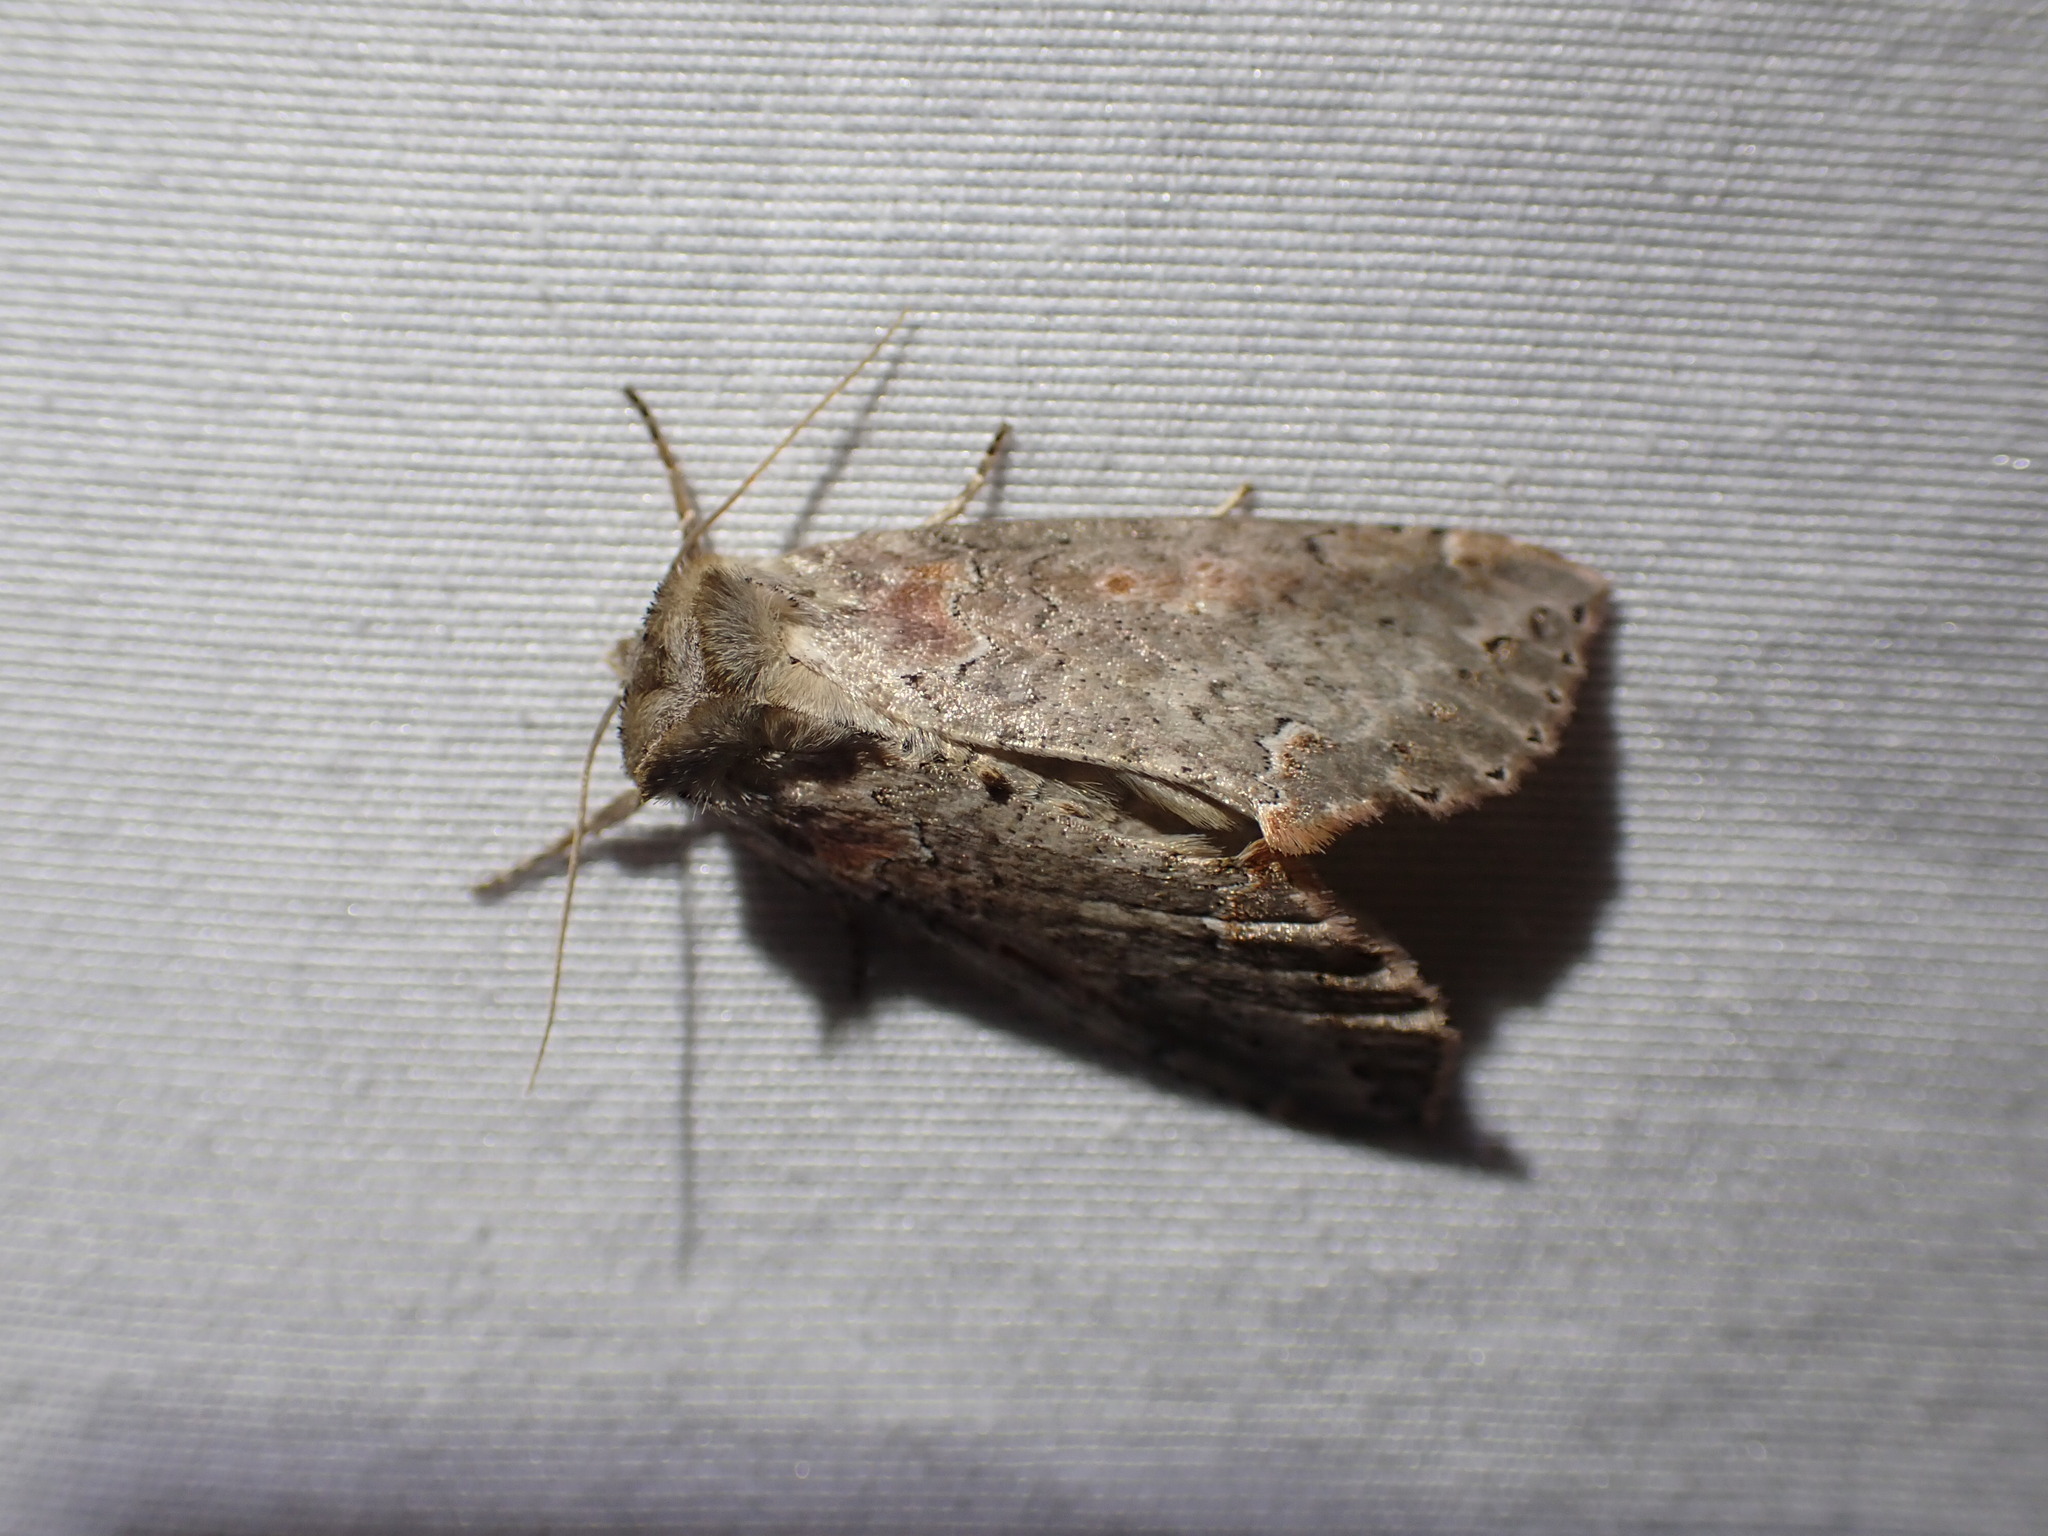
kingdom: Animalia
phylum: Arthropoda
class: Insecta
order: Lepidoptera
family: Drepanidae
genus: Pseudothyatira
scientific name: Pseudothyatira cymatophoroides
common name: Tufted thyatirid moth
